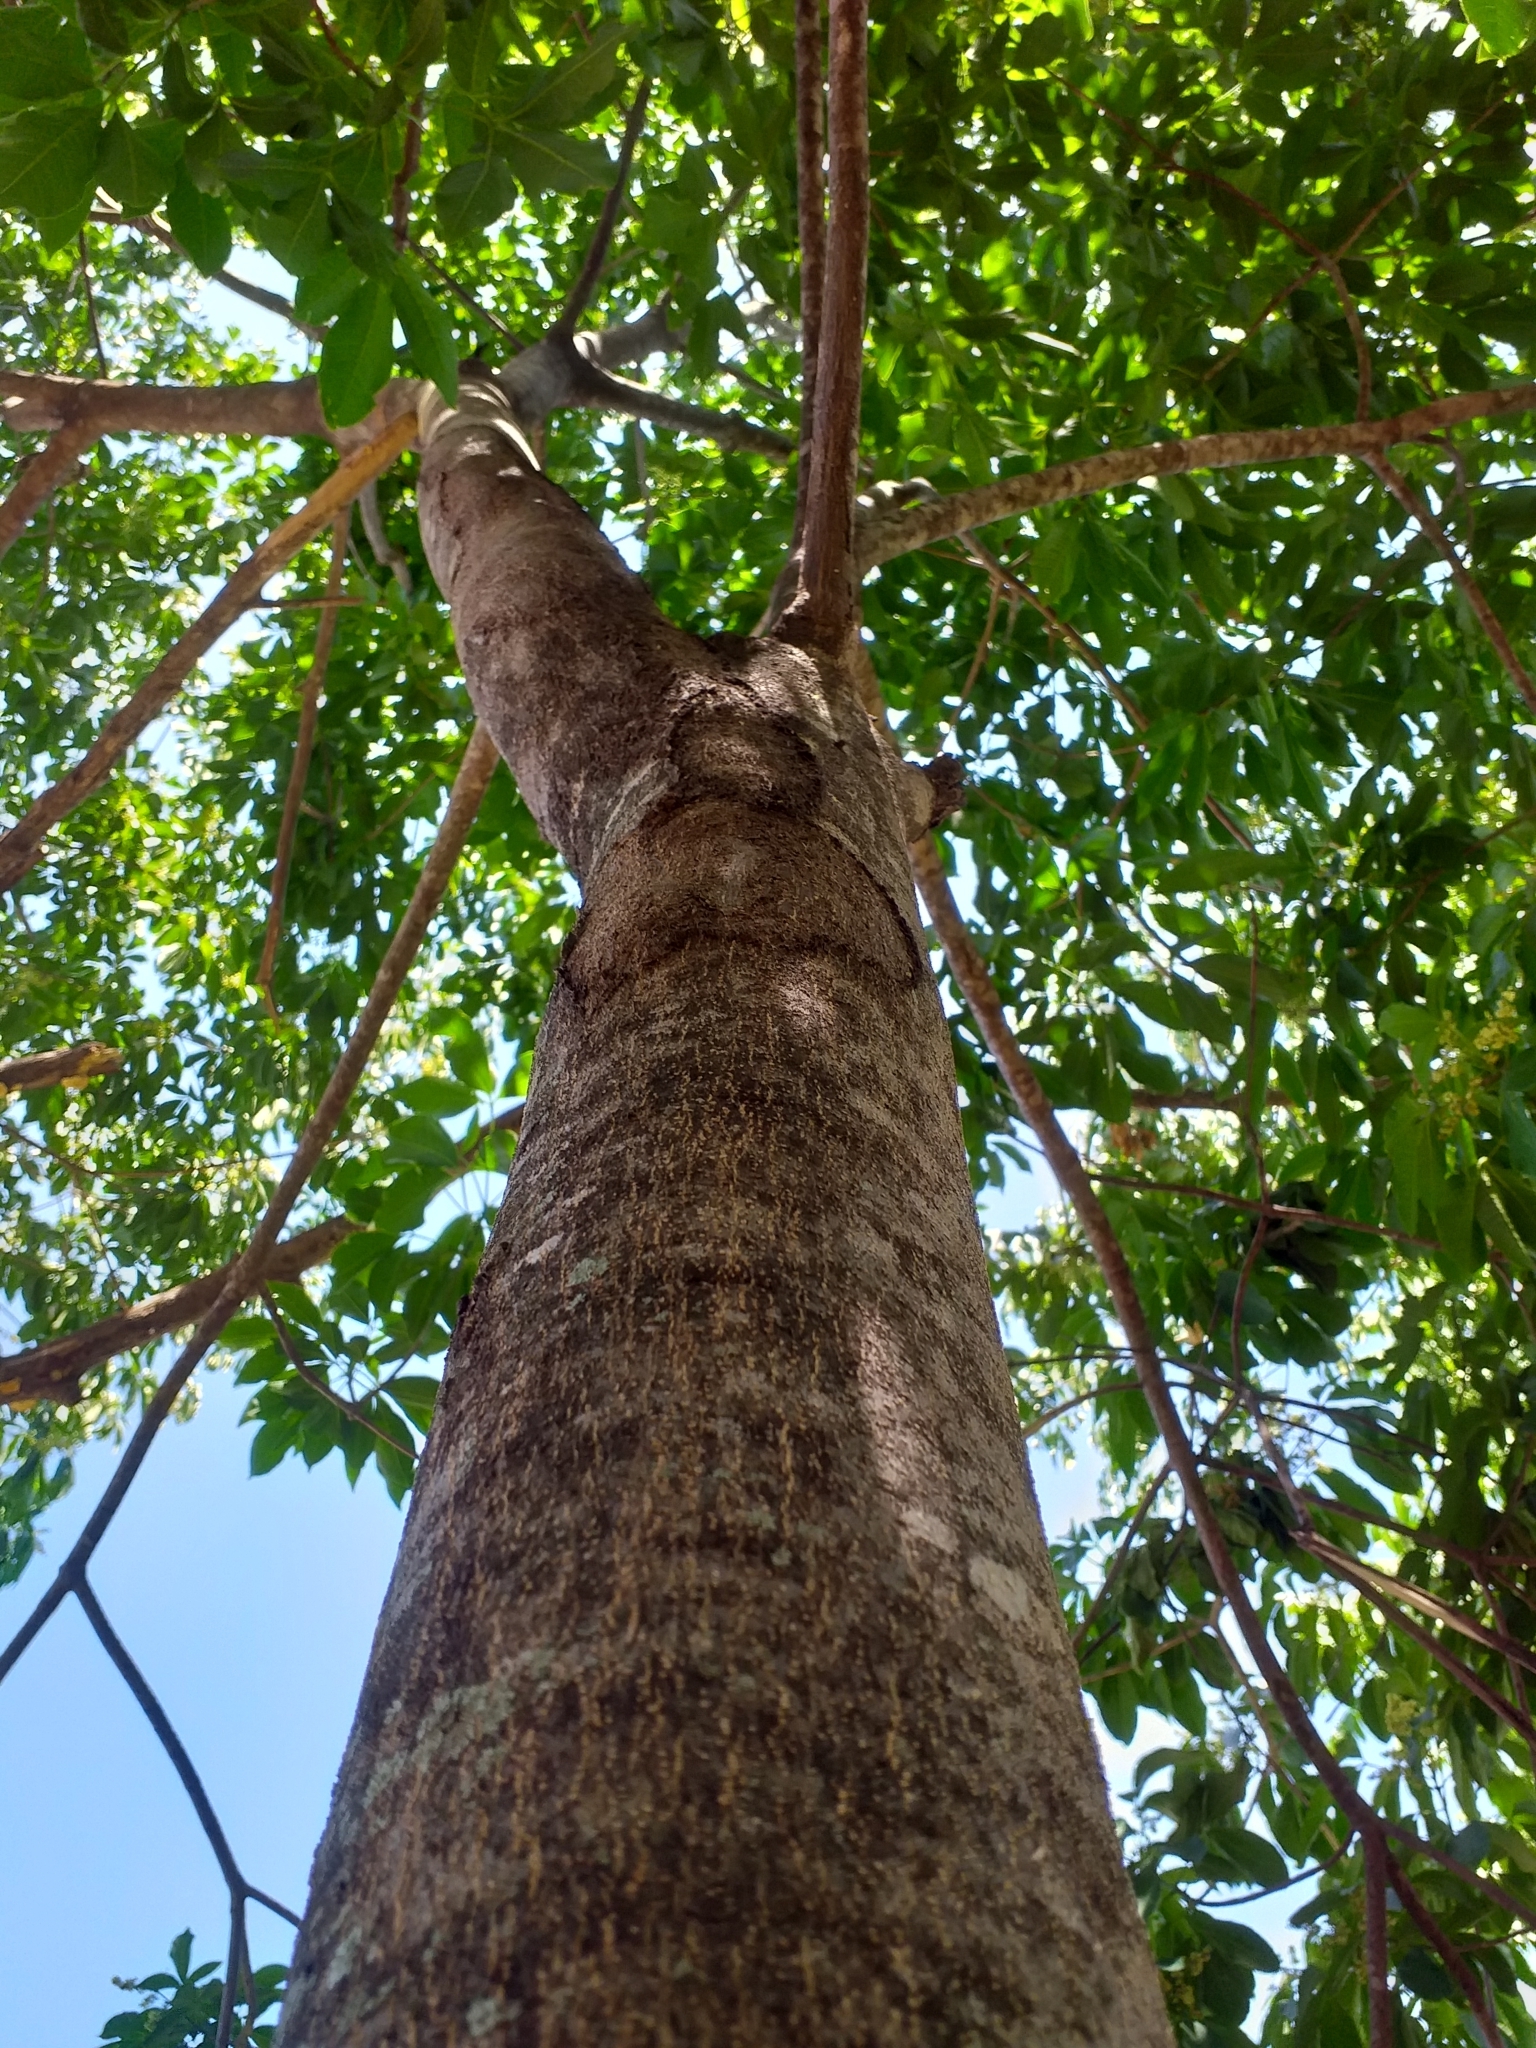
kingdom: Plantae
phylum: Tracheophyta
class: Magnoliopsida
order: Sapindales
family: Rutaceae
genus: Balfourodendron
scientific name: Balfourodendron riedelianum
